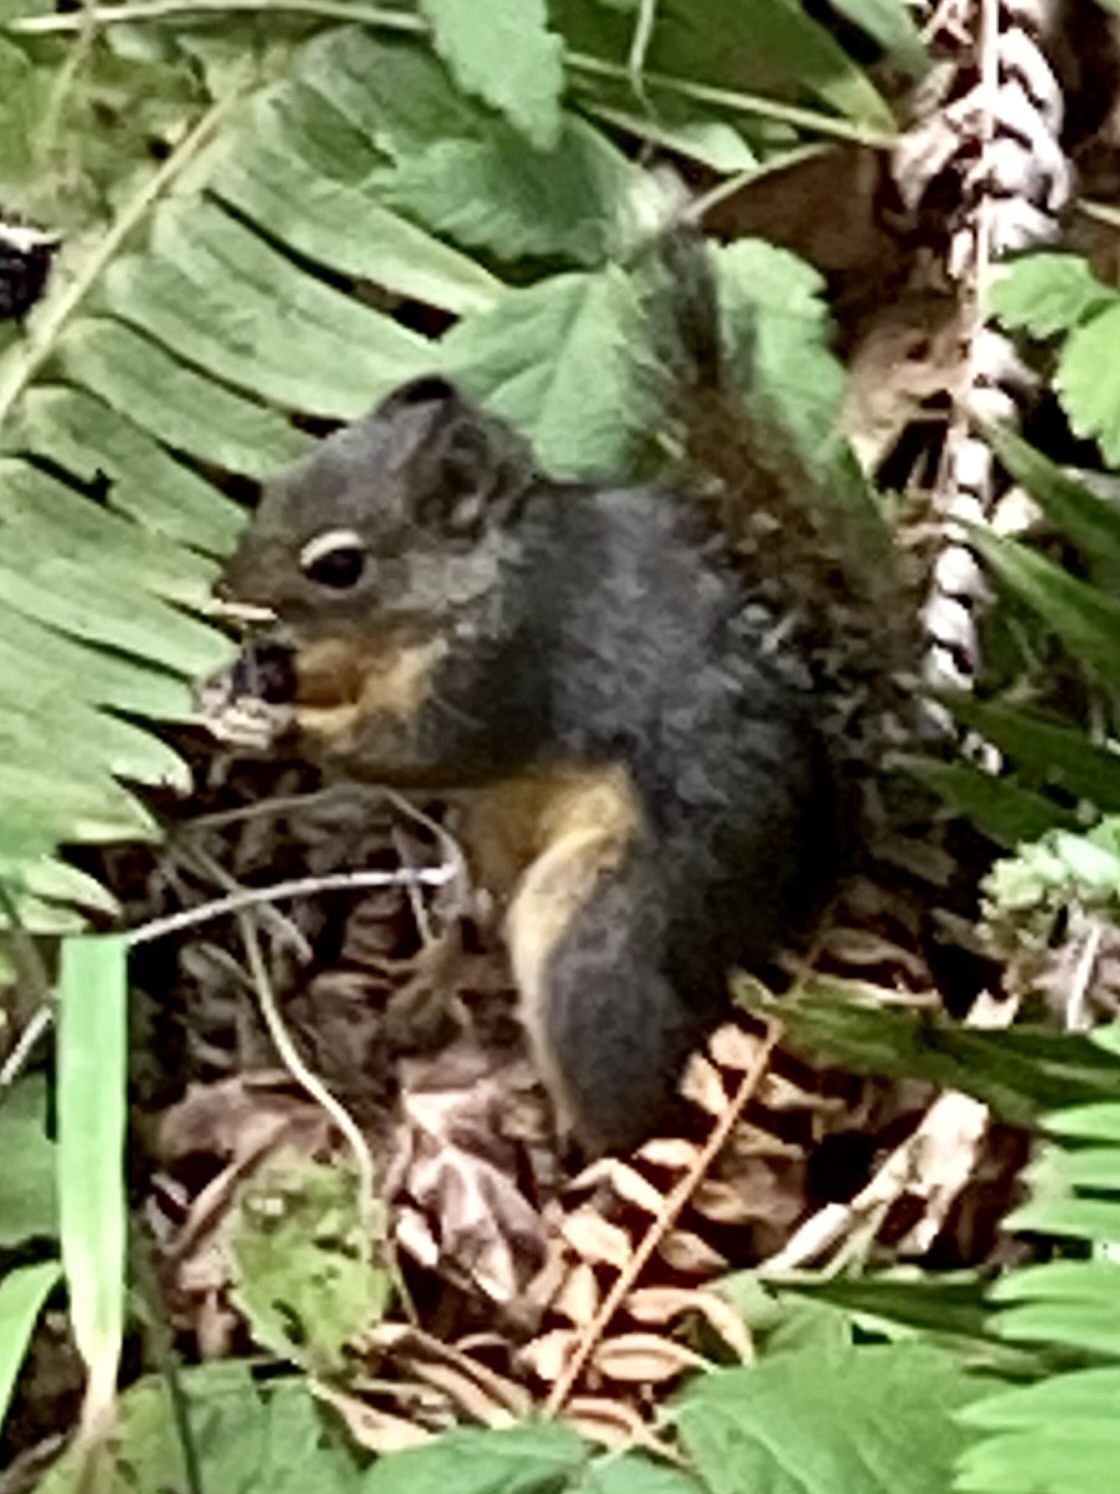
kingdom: Animalia
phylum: Chordata
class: Mammalia
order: Rodentia
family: Sciuridae
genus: Tamiasciurus
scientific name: Tamiasciurus douglasii
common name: Douglas's squirrel
